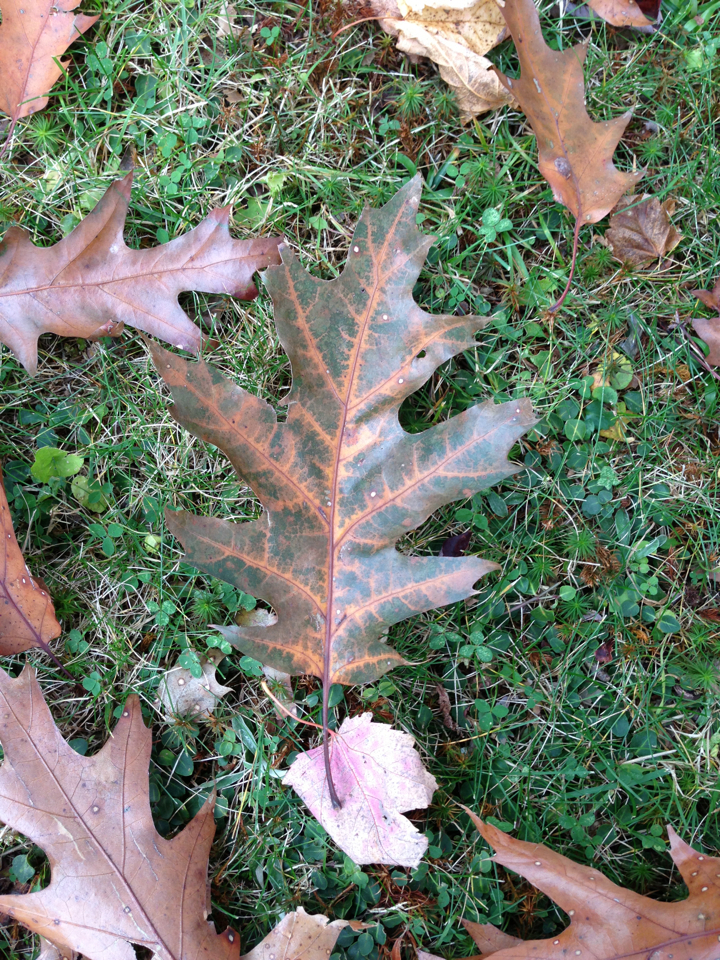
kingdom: Plantae
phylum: Tracheophyta
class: Magnoliopsida
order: Fagales
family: Fagaceae
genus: Quercus
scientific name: Quercus rubra
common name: Red oak
